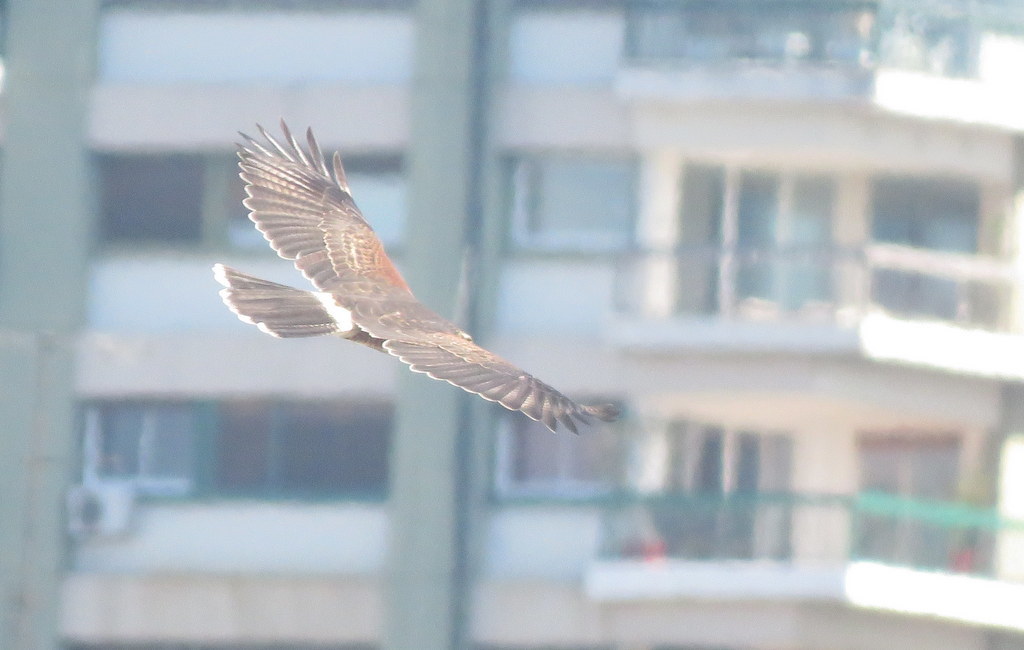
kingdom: Animalia
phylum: Chordata
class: Aves
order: Accipitriformes
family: Accipitridae
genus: Parabuteo
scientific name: Parabuteo unicinctus
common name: Harris's hawk
